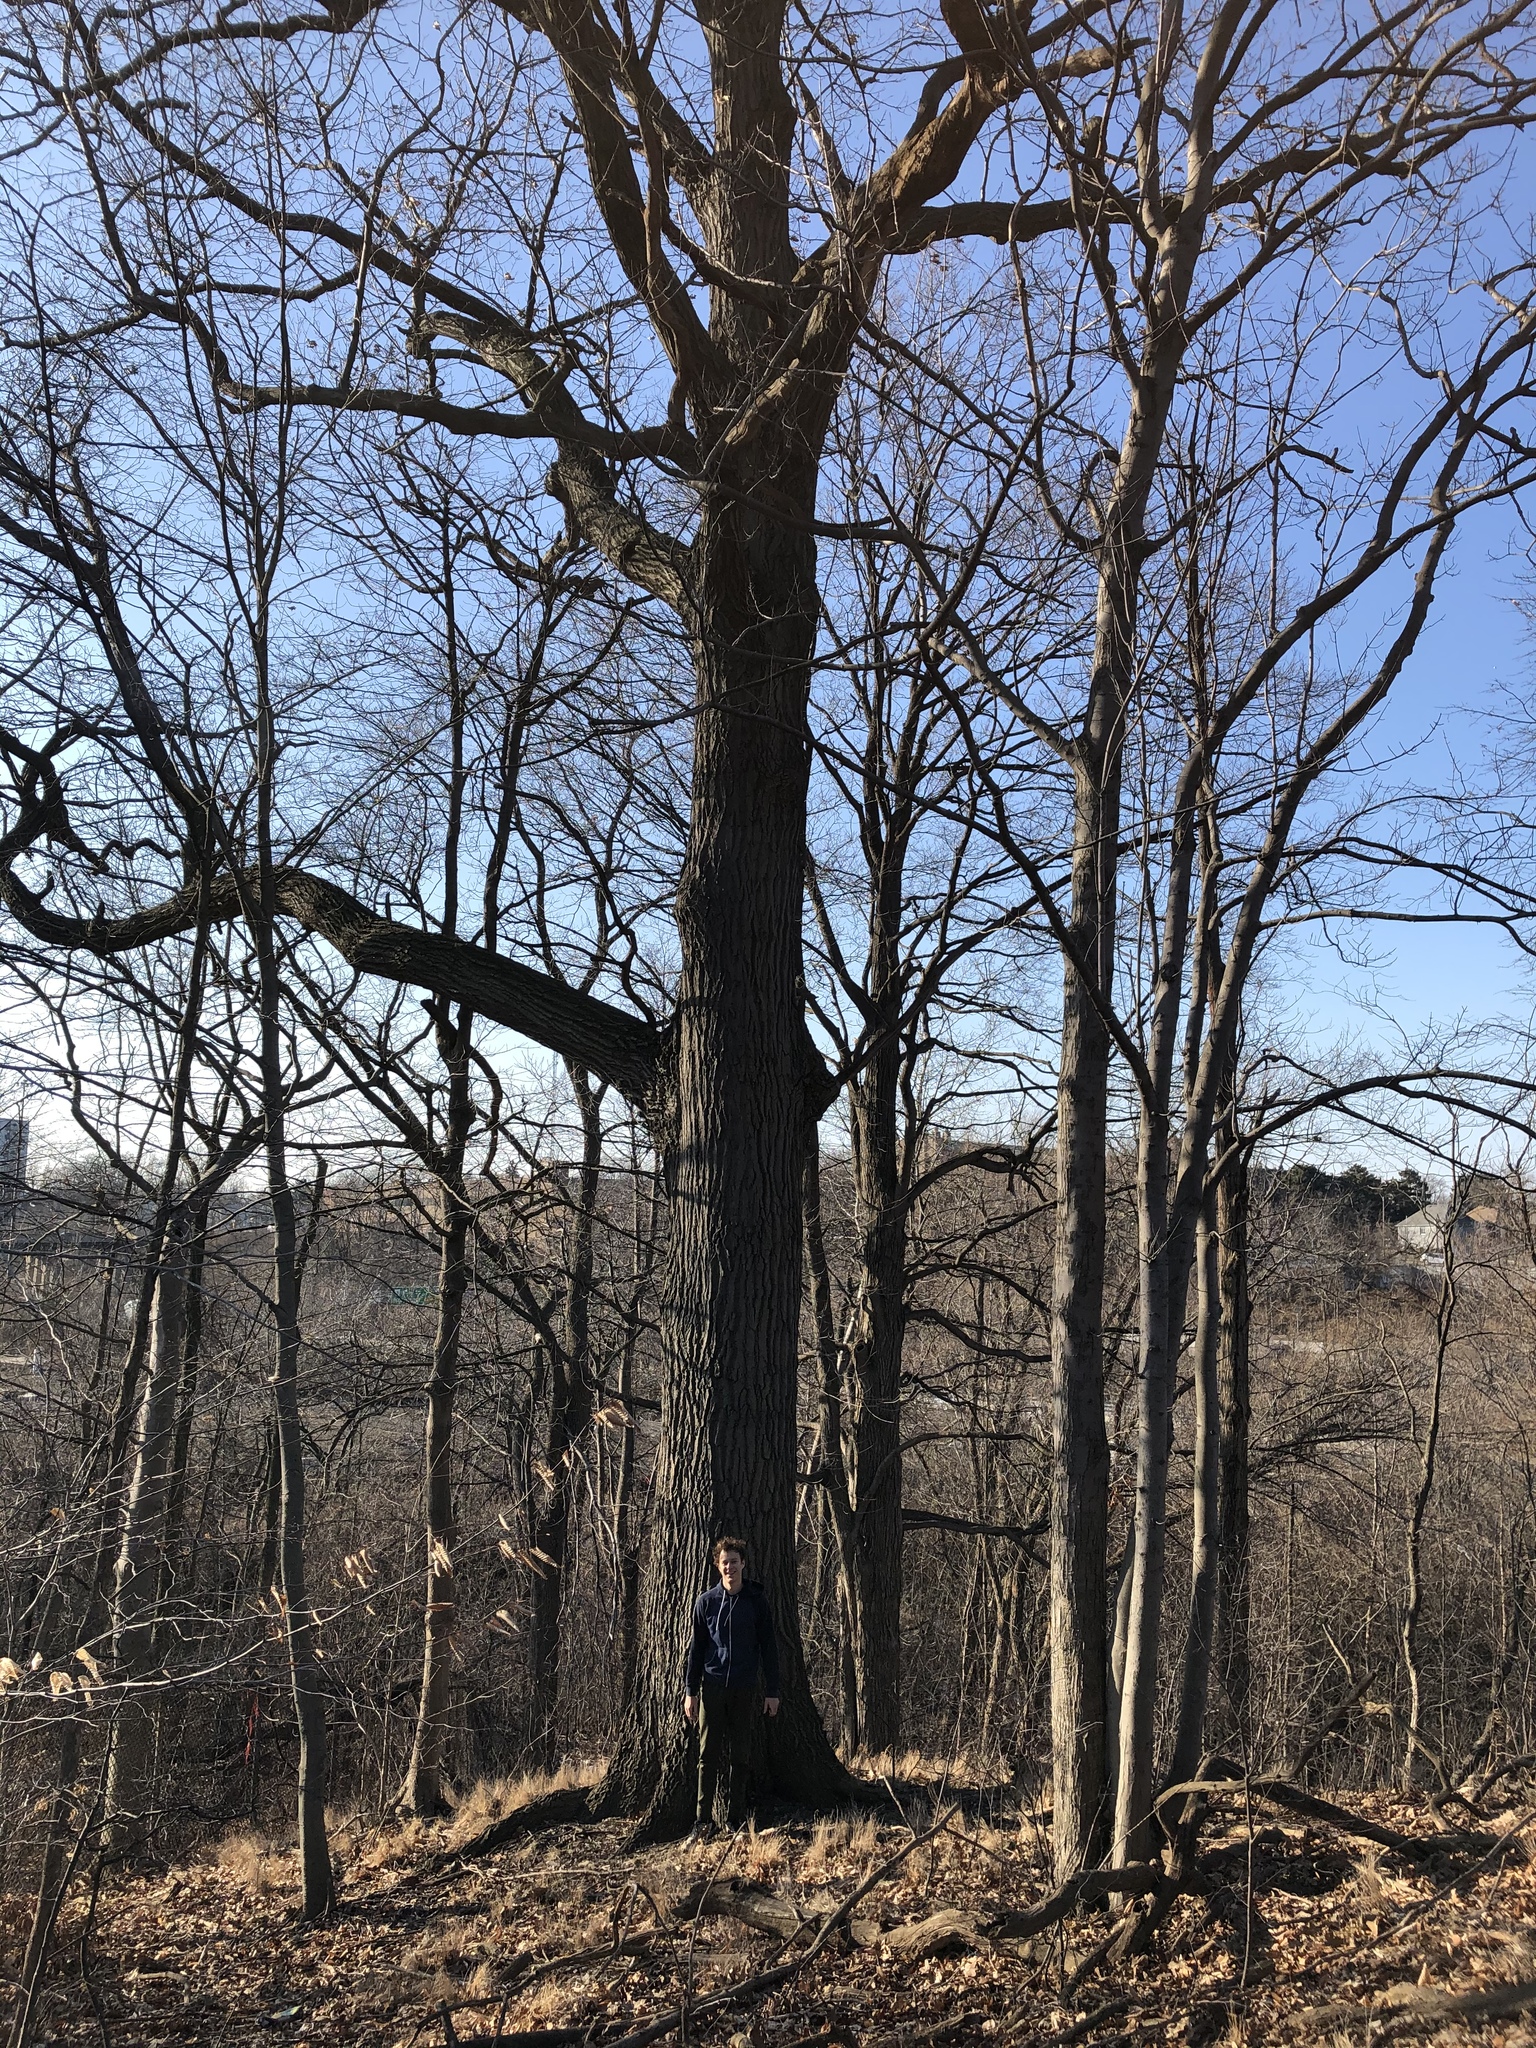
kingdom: Plantae
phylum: Tracheophyta
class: Magnoliopsida
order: Fagales
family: Fagaceae
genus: Quercus
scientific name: Quercus rubra
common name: Red oak
